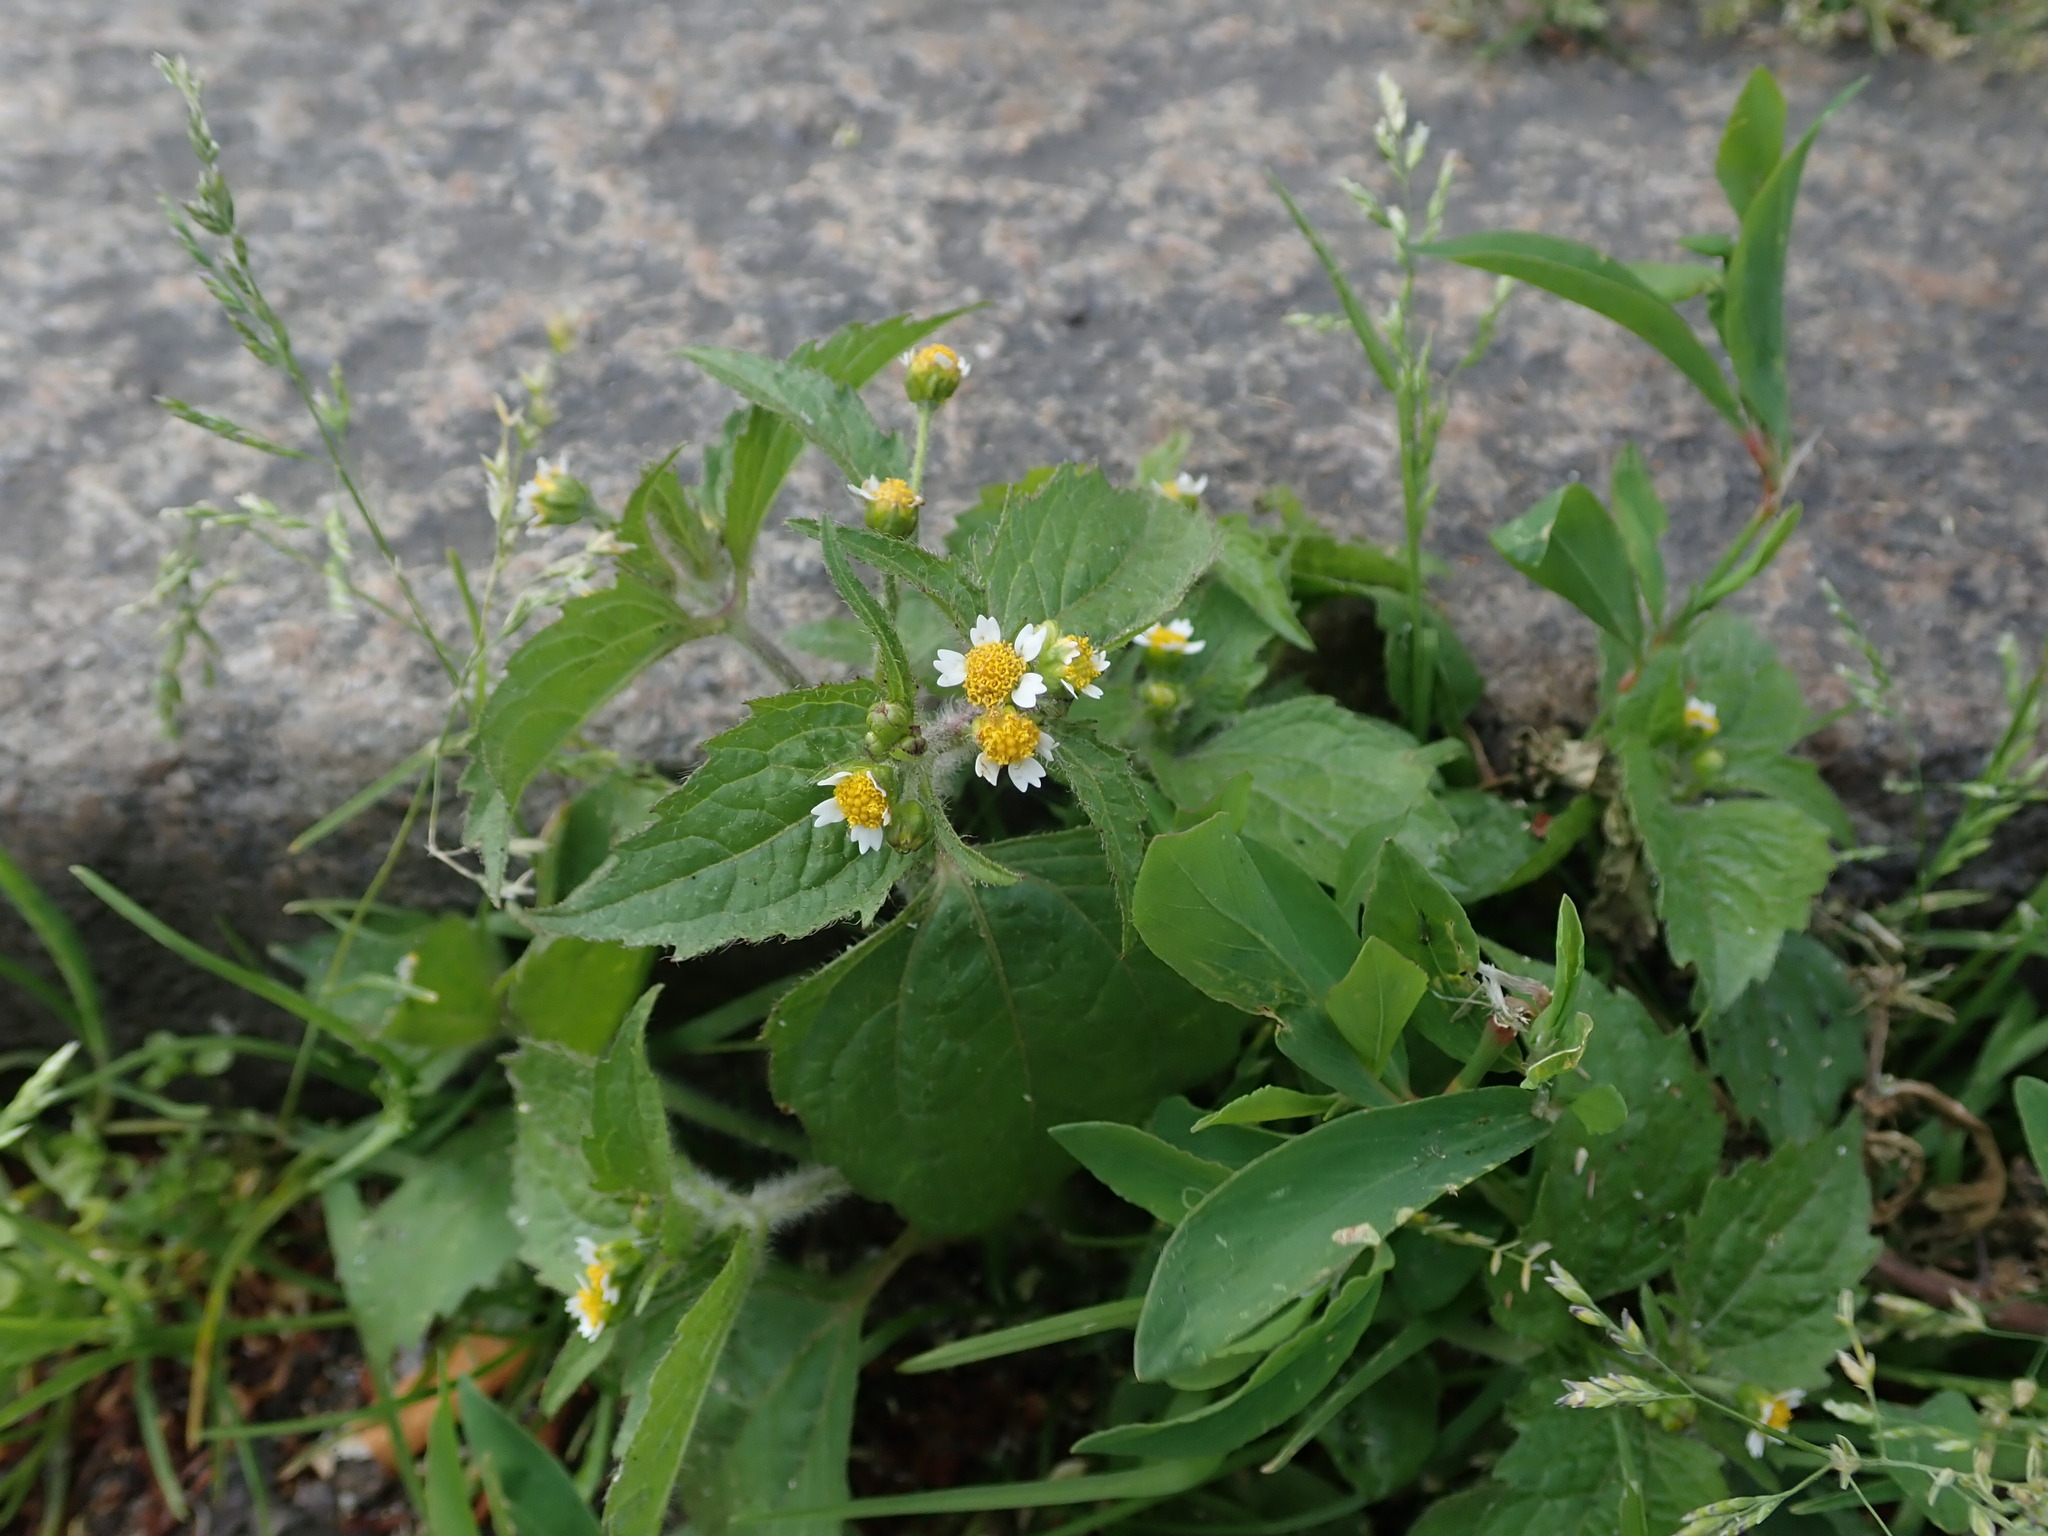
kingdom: Plantae
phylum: Tracheophyta
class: Magnoliopsida
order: Asterales
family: Asteraceae
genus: Galinsoga
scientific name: Galinsoga quadriradiata
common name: Shaggy soldier
